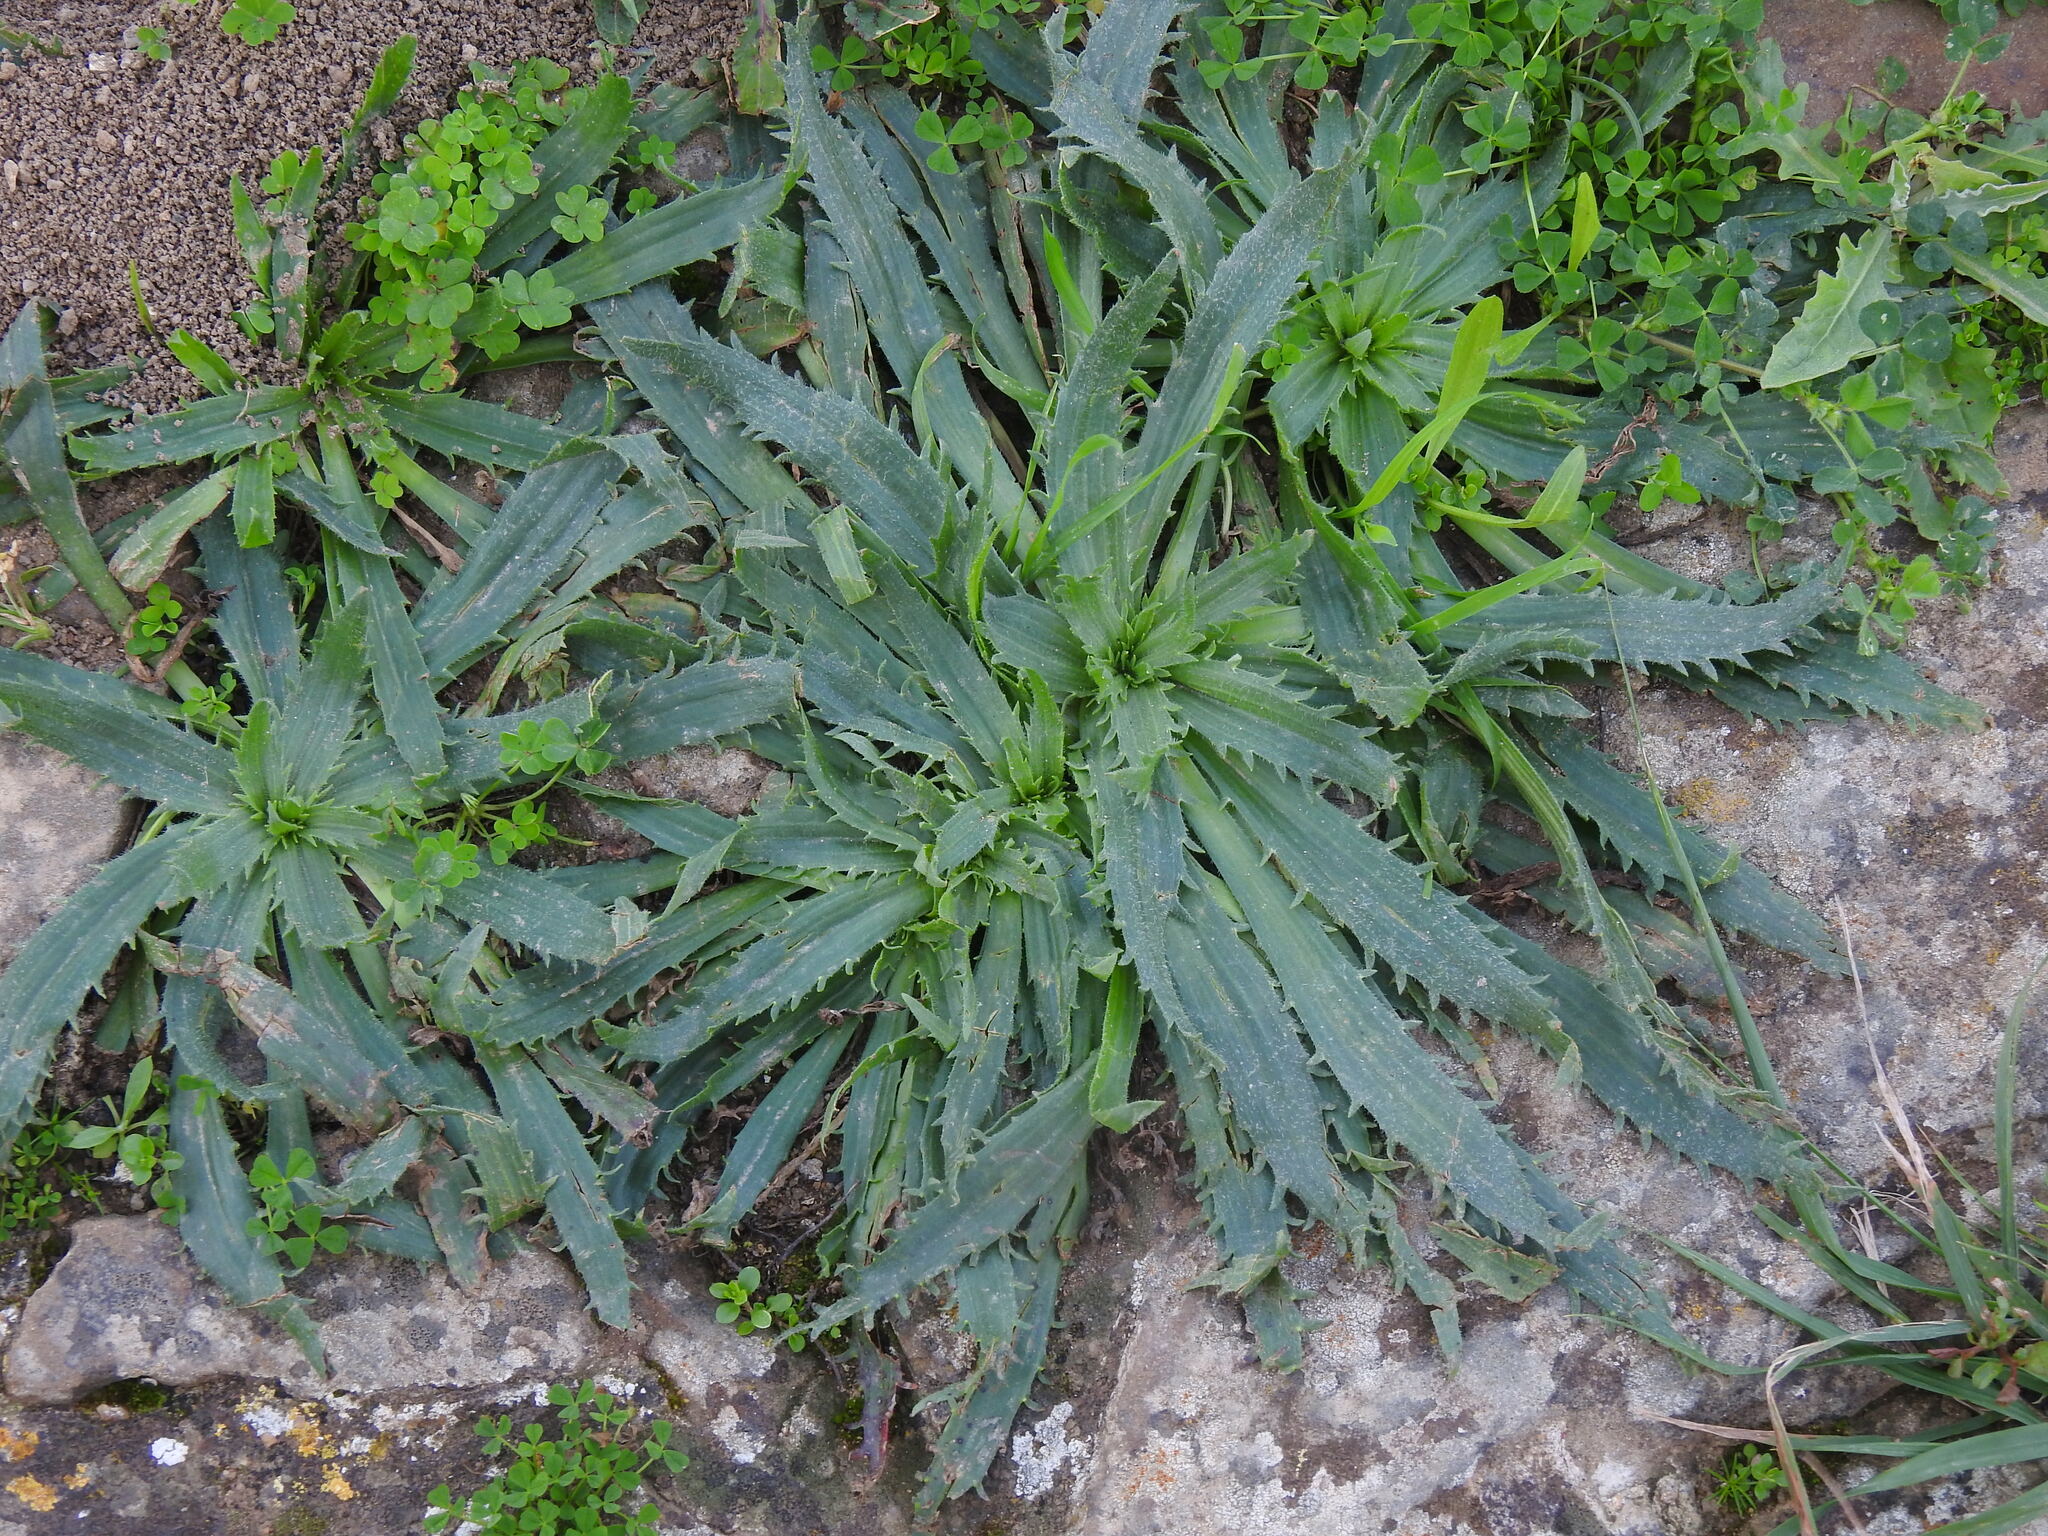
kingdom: Plantae
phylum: Tracheophyta
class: Magnoliopsida
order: Lamiales
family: Plantaginaceae
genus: Plantago
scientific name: Plantago serraria
